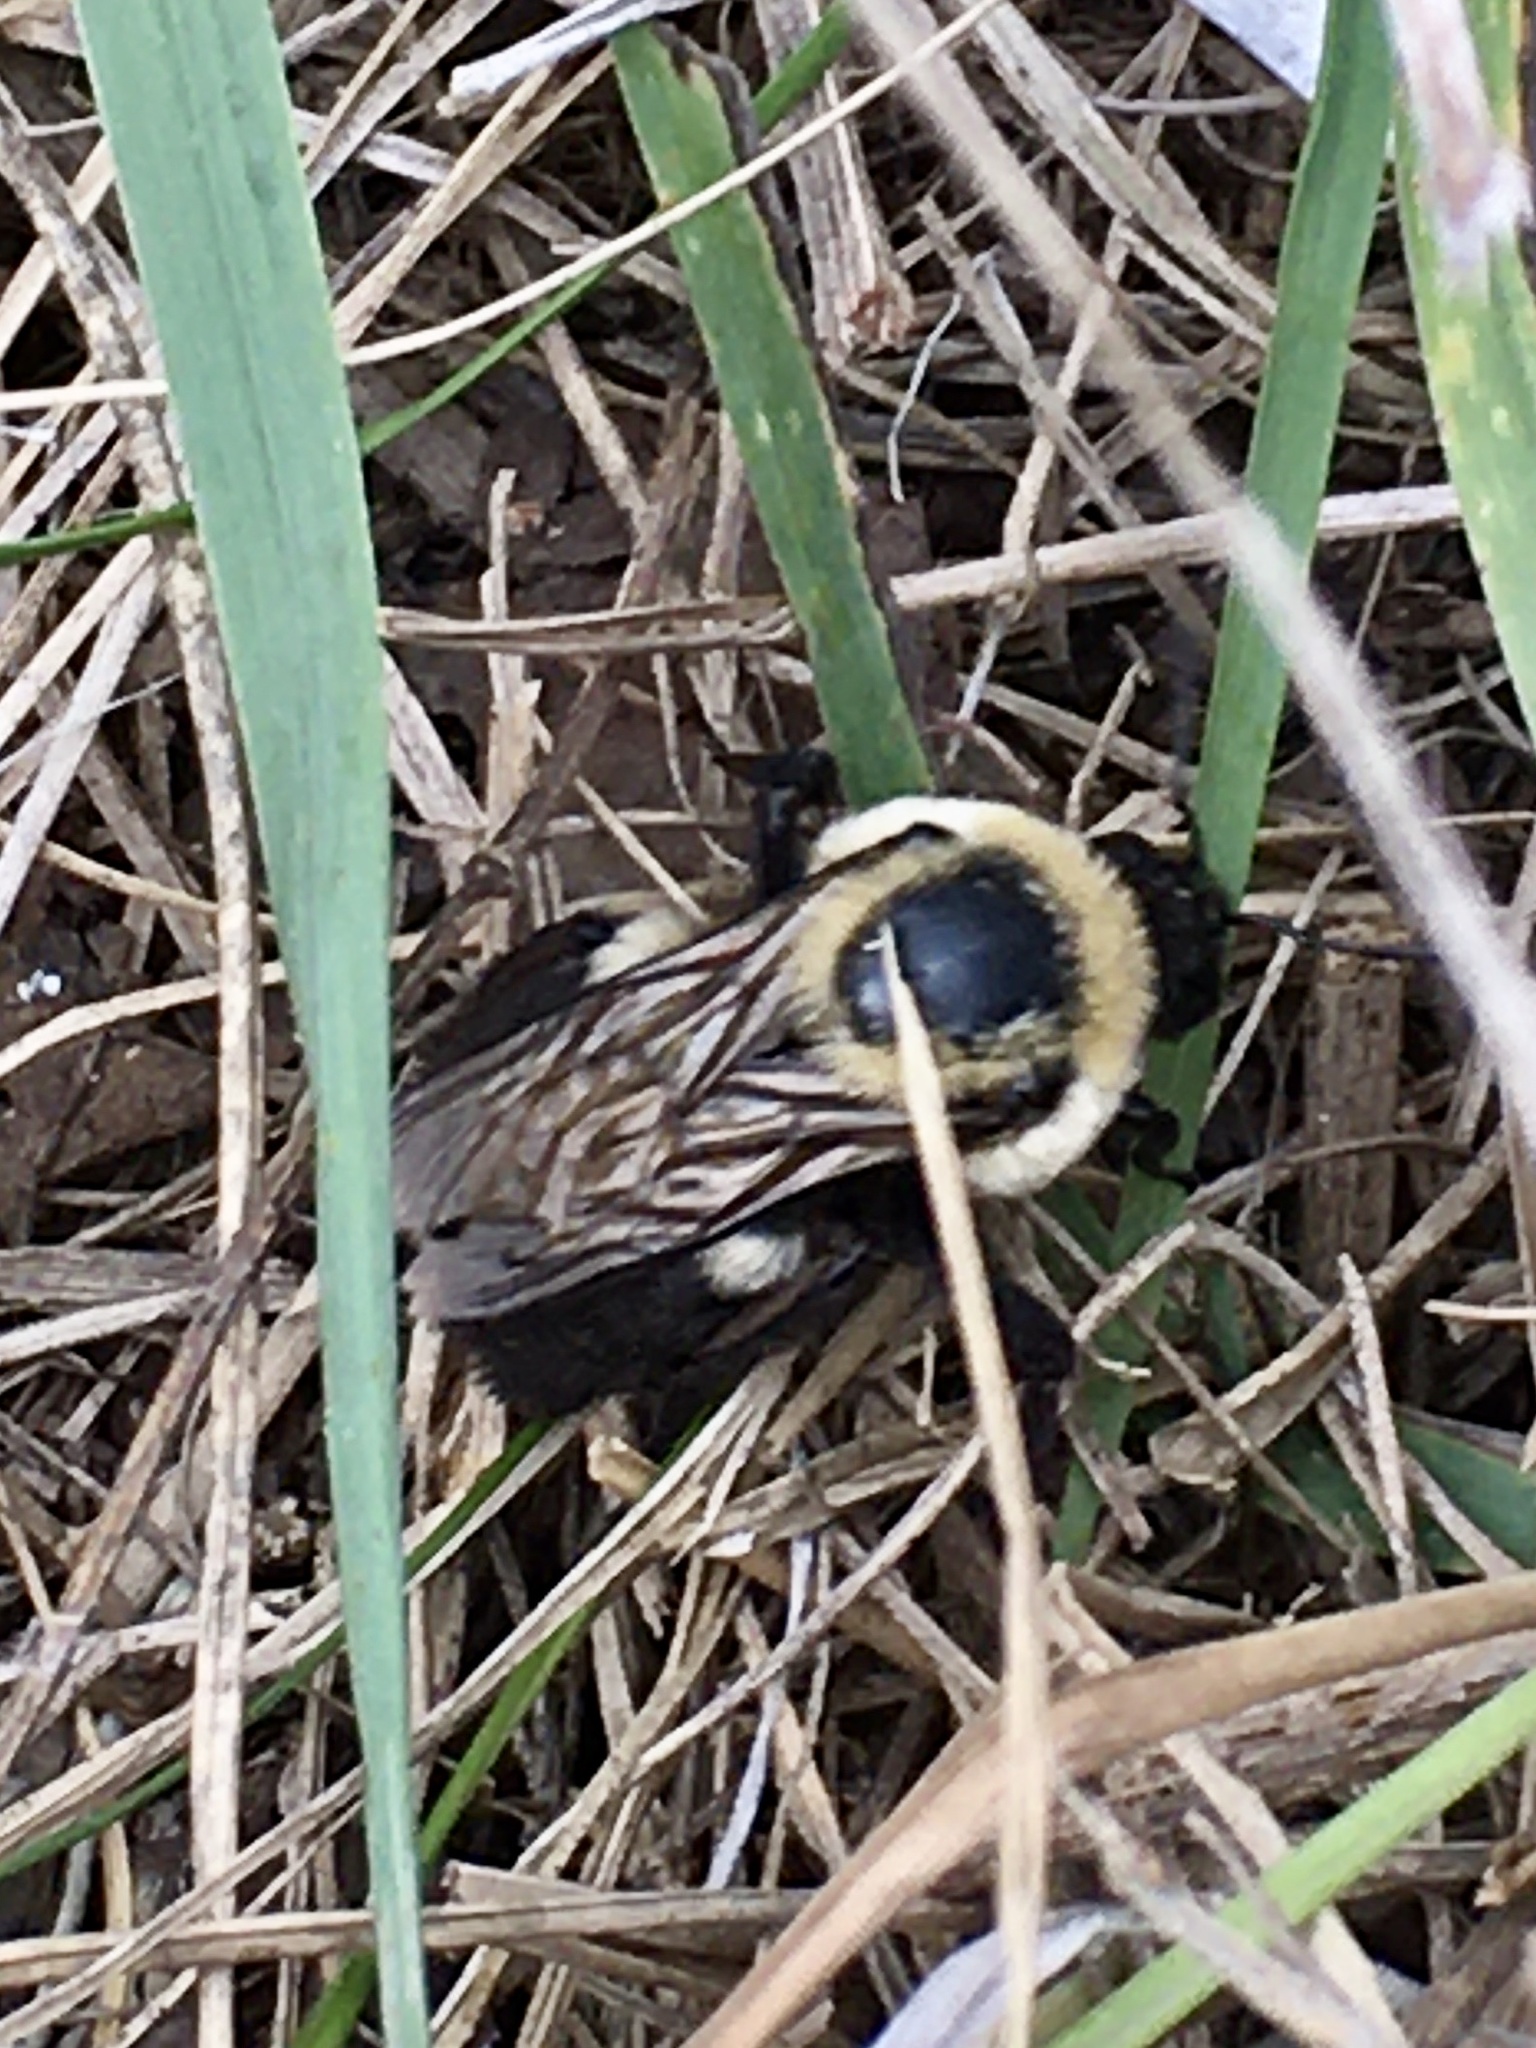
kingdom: Animalia
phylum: Arthropoda
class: Insecta
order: Hymenoptera
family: Apidae
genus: Bombus
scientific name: Bombus griseocollis
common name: Brown-belted bumble bee
